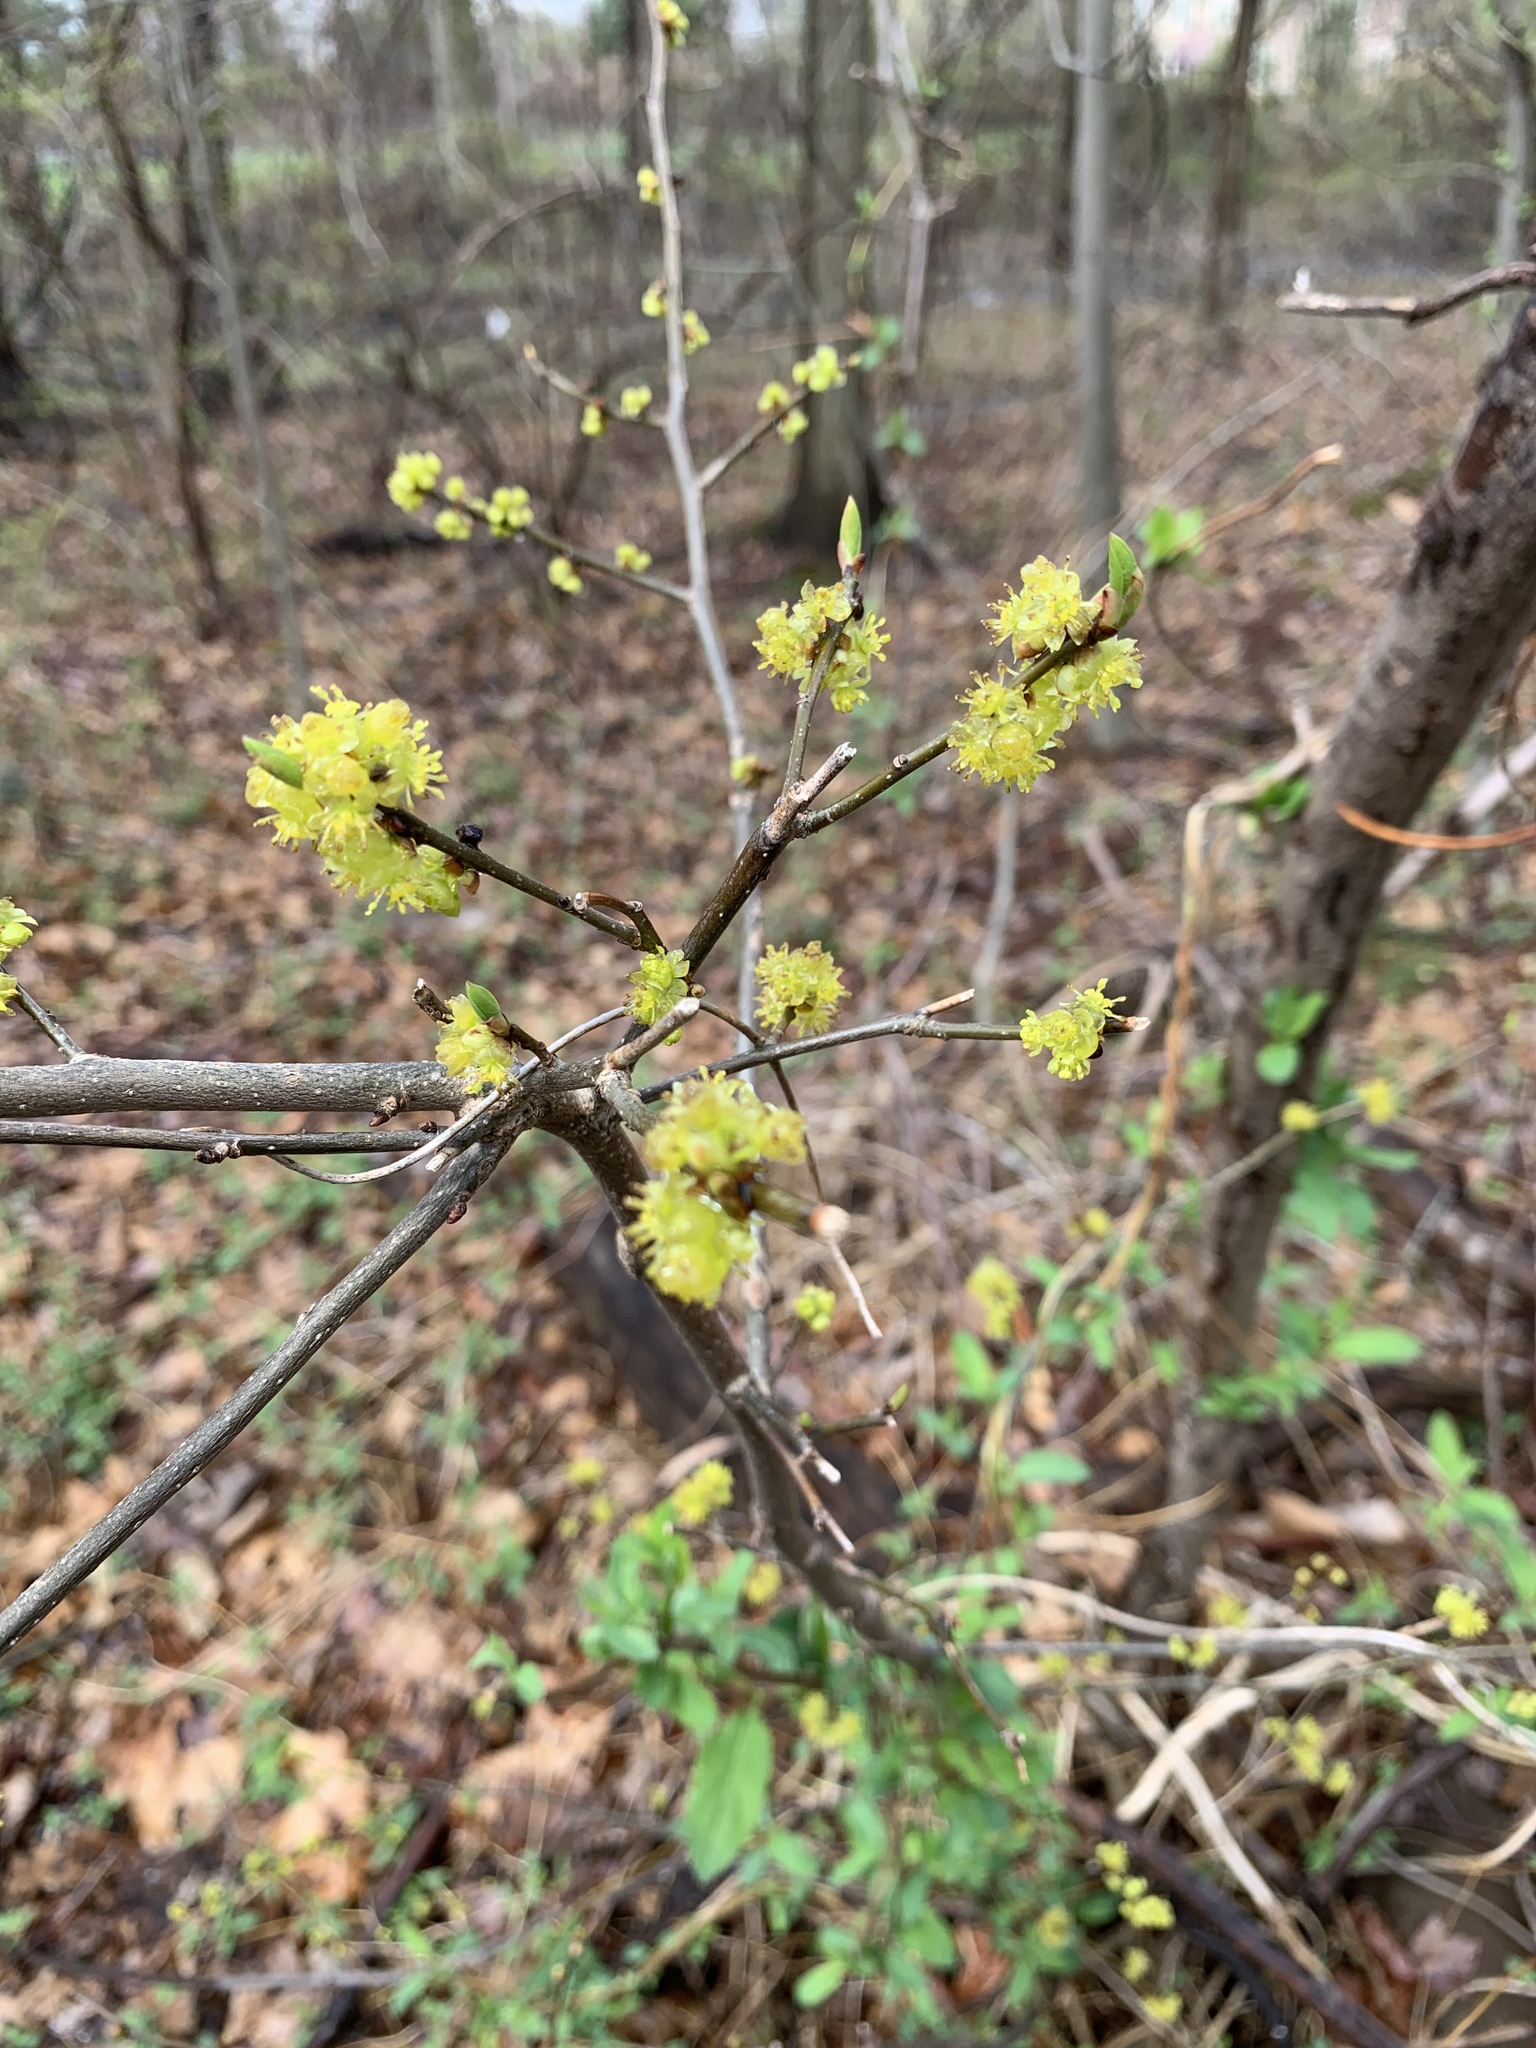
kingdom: Plantae
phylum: Tracheophyta
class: Magnoliopsida
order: Laurales
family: Lauraceae
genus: Lindera
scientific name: Lindera benzoin
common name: Spicebush
